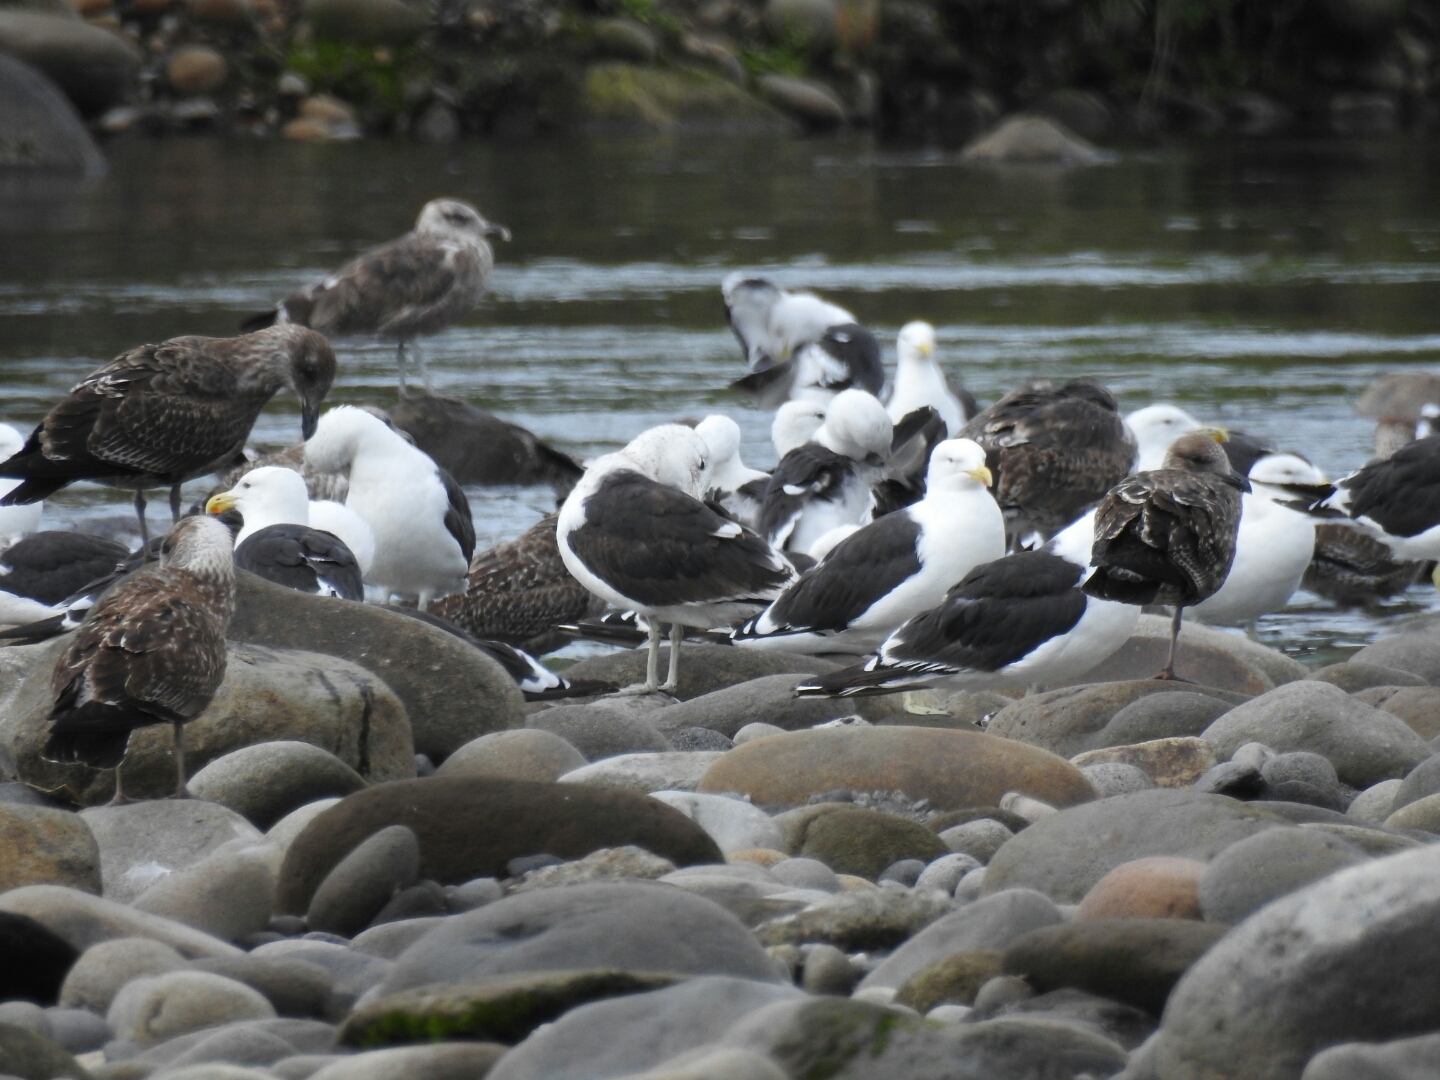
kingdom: Animalia
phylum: Chordata
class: Aves
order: Charadriiformes
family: Laridae
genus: Larus
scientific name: Larus dominicanus
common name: Kelp gull
